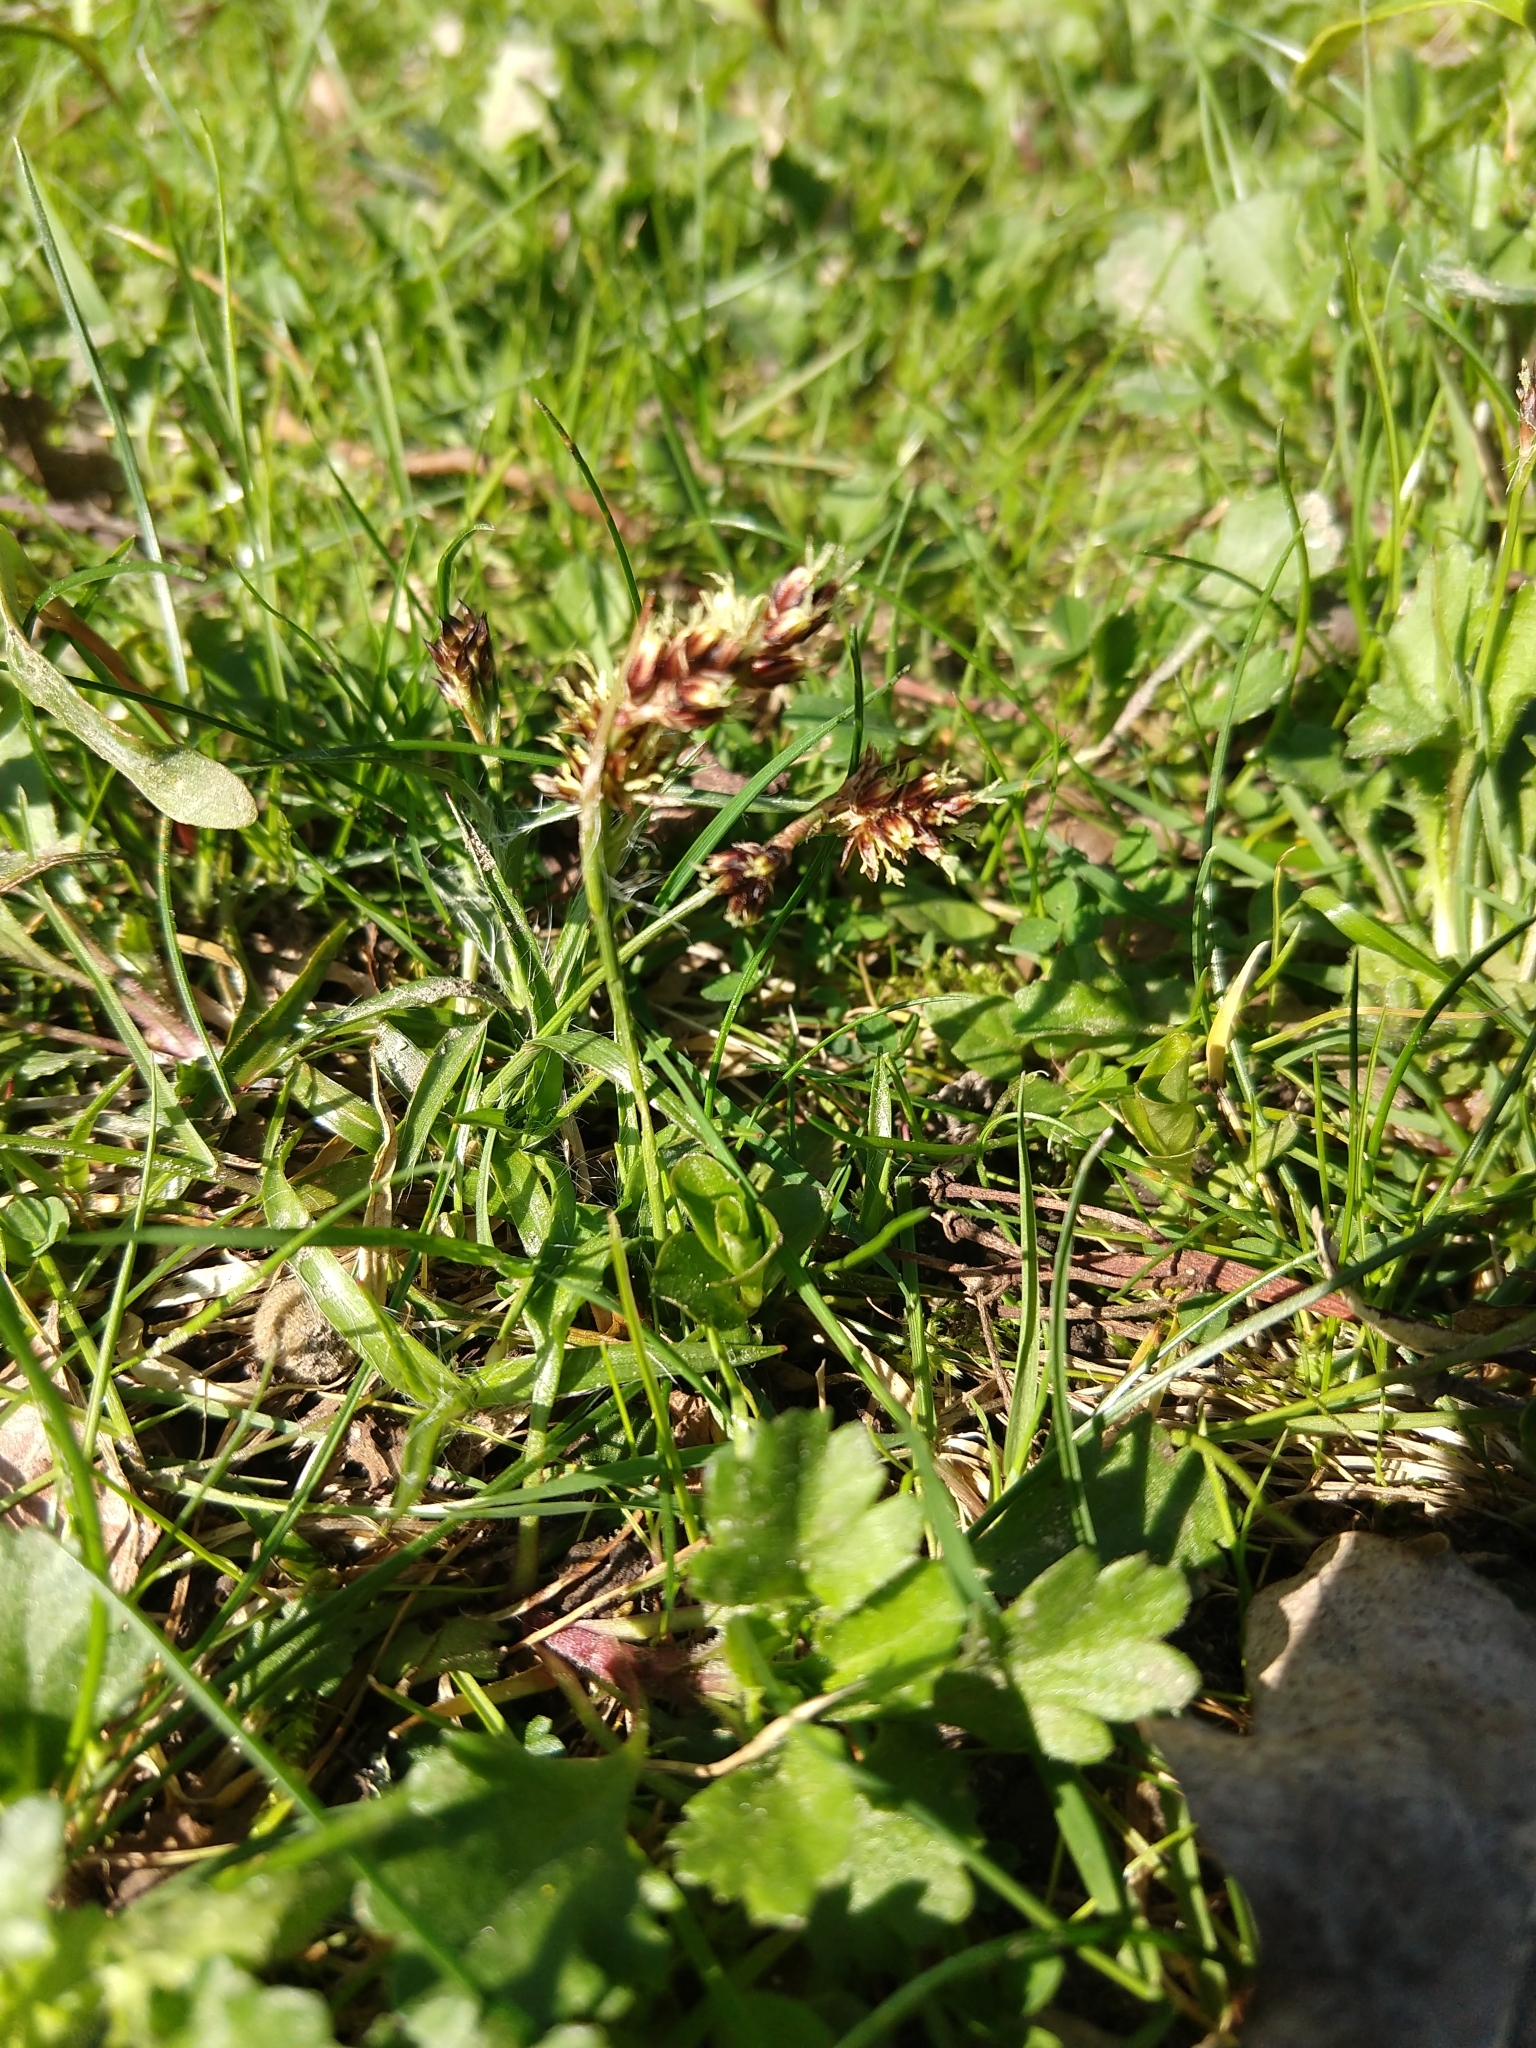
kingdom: Plantae
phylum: Tracheophyta
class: Liliopsida
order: Poales
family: Juncaceae
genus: Luzula
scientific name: Luzula campestris
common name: Field wood-rush
